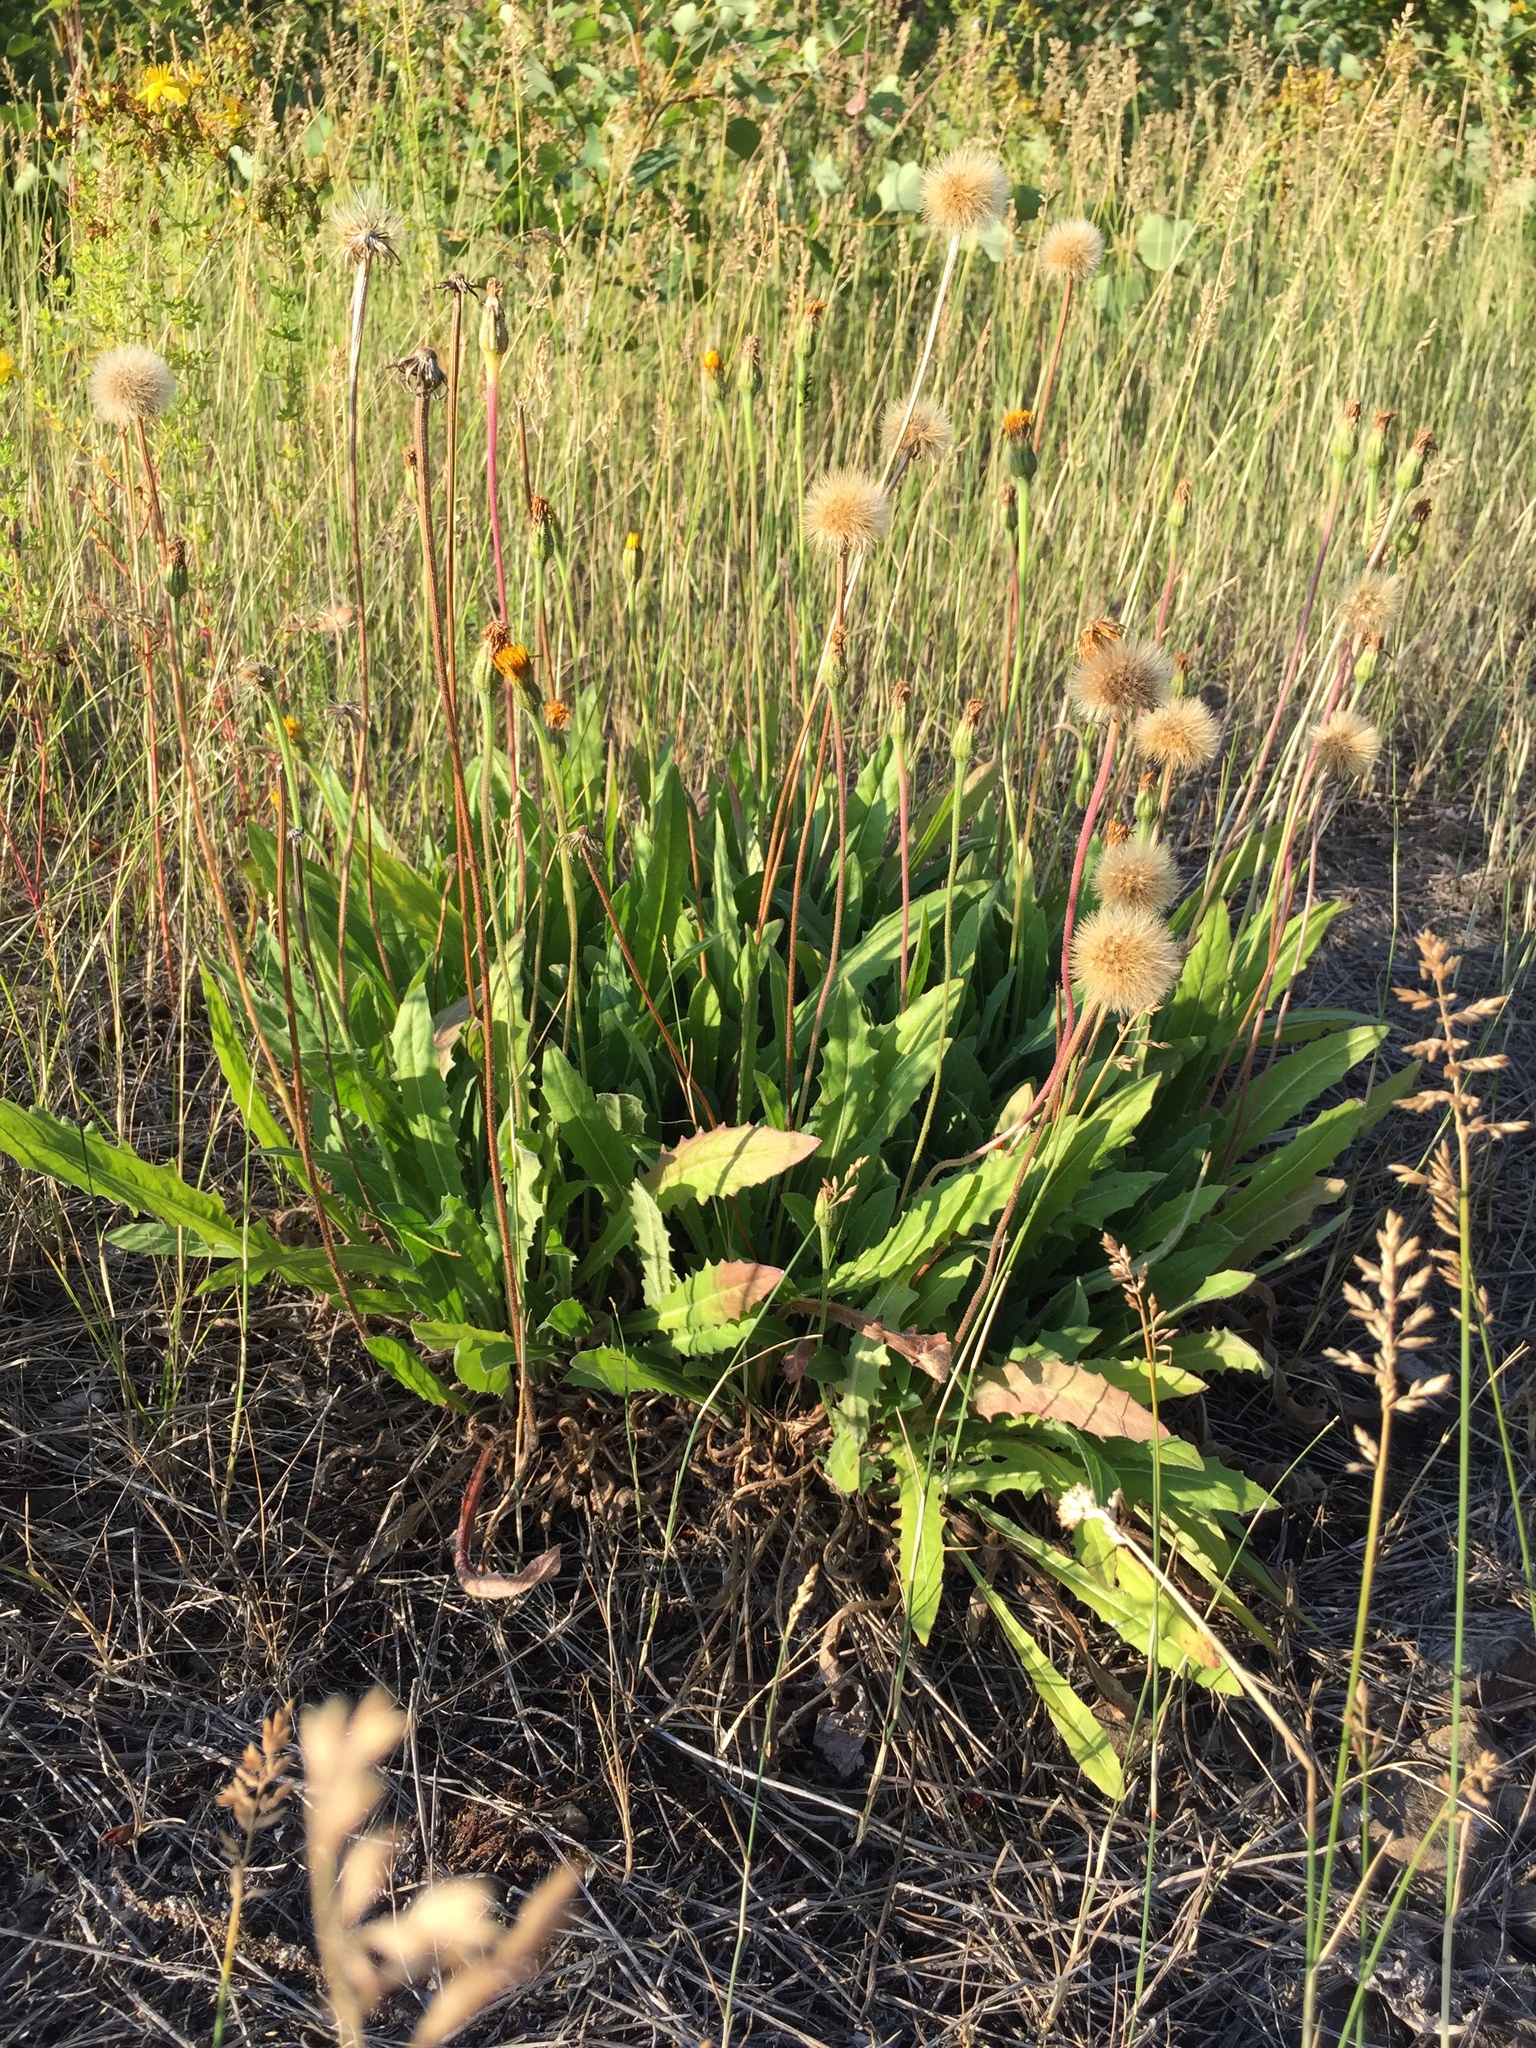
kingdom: Plantae
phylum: Tracheophyta
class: Magnoliopsida
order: Asterales
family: Asteraceae
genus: Leontodon
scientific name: Leontodon hispidus
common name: Rough hawkbit
